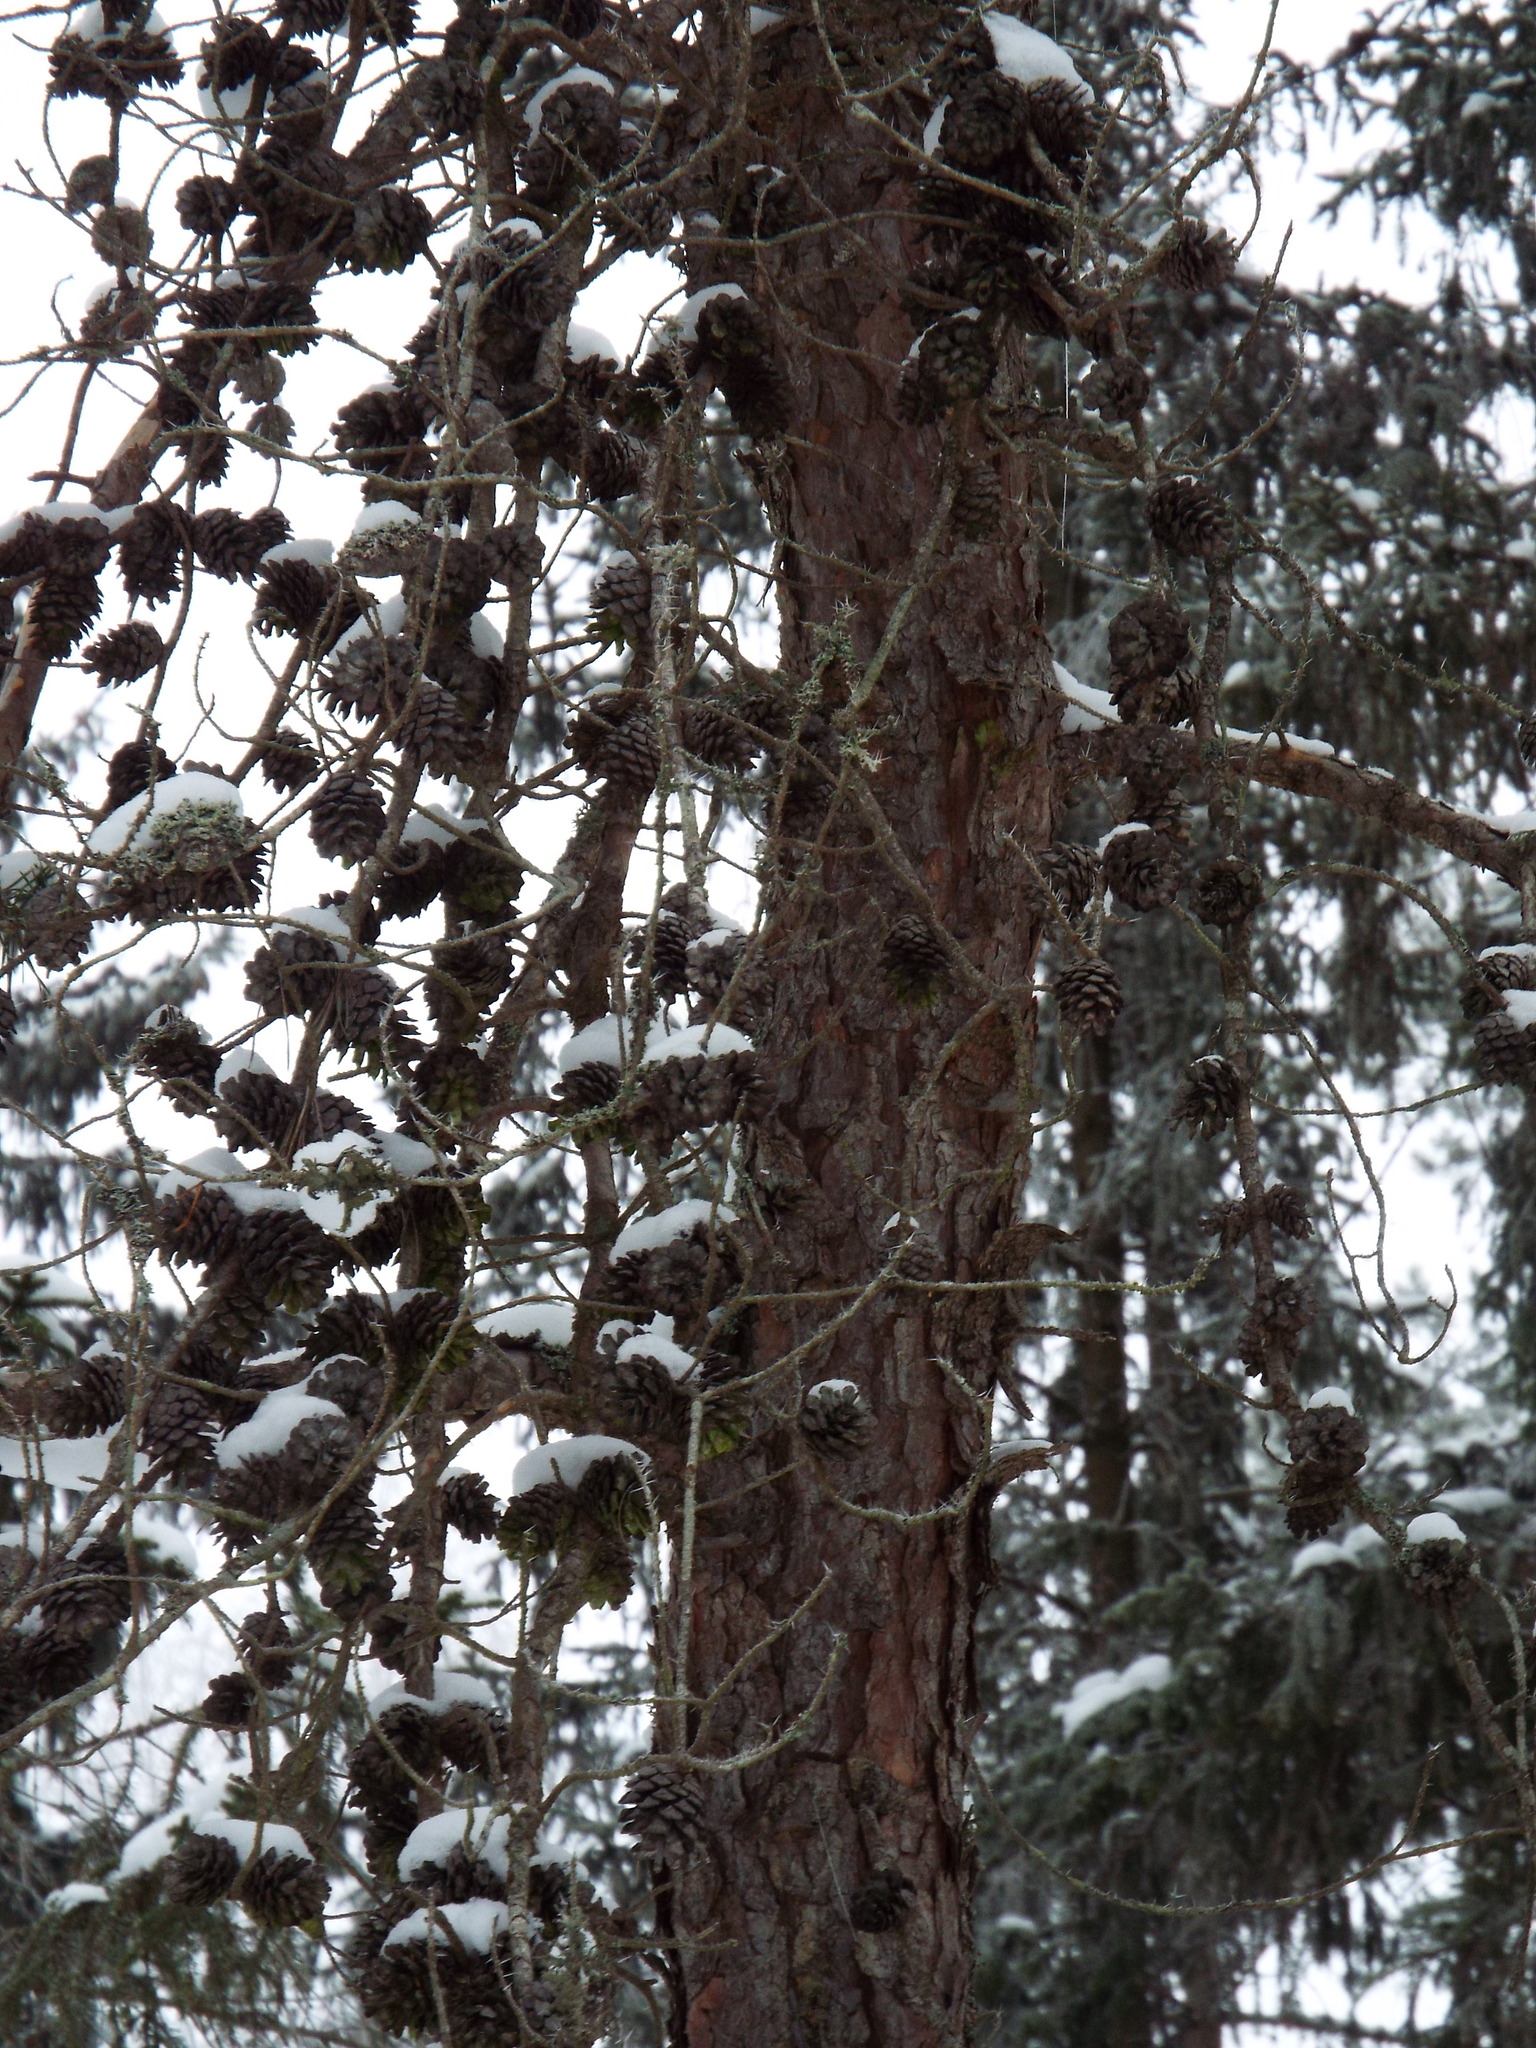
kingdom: Plantae
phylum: Tracheophyta
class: Pinopsida
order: Pinales
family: Pinaceae
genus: Pinus
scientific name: Pinus banksiana
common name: Jack pine
